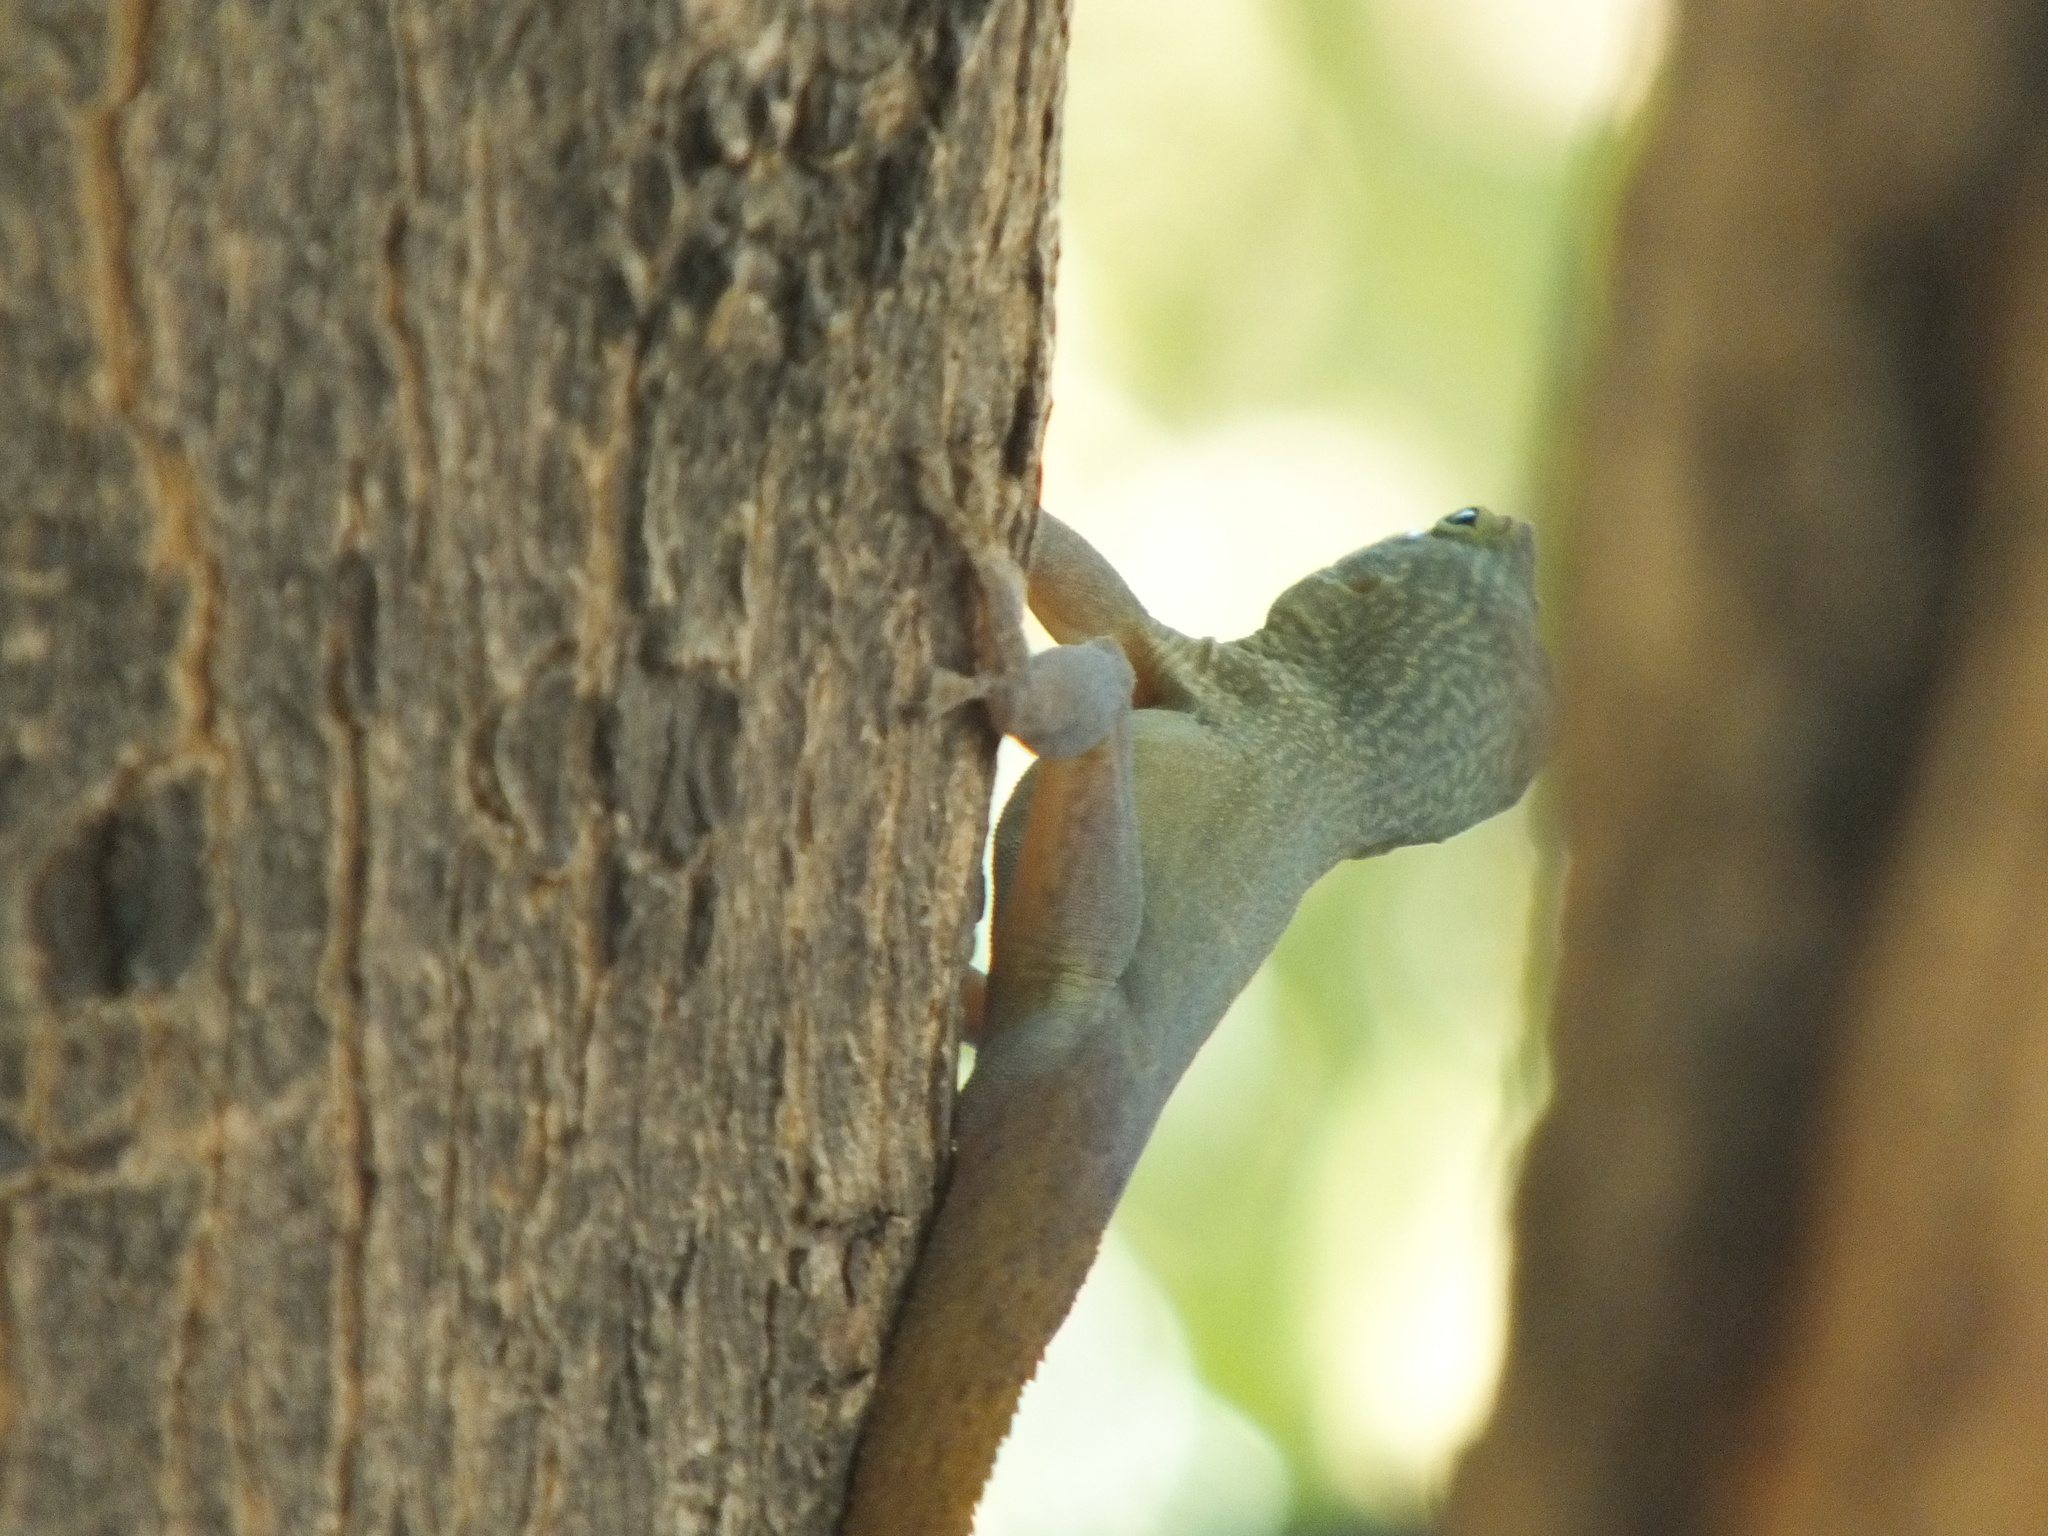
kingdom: Animalia
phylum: Chordata
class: Squamata
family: Dactyloidae
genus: Anolis
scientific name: Anolis grahami
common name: Graham's anole
